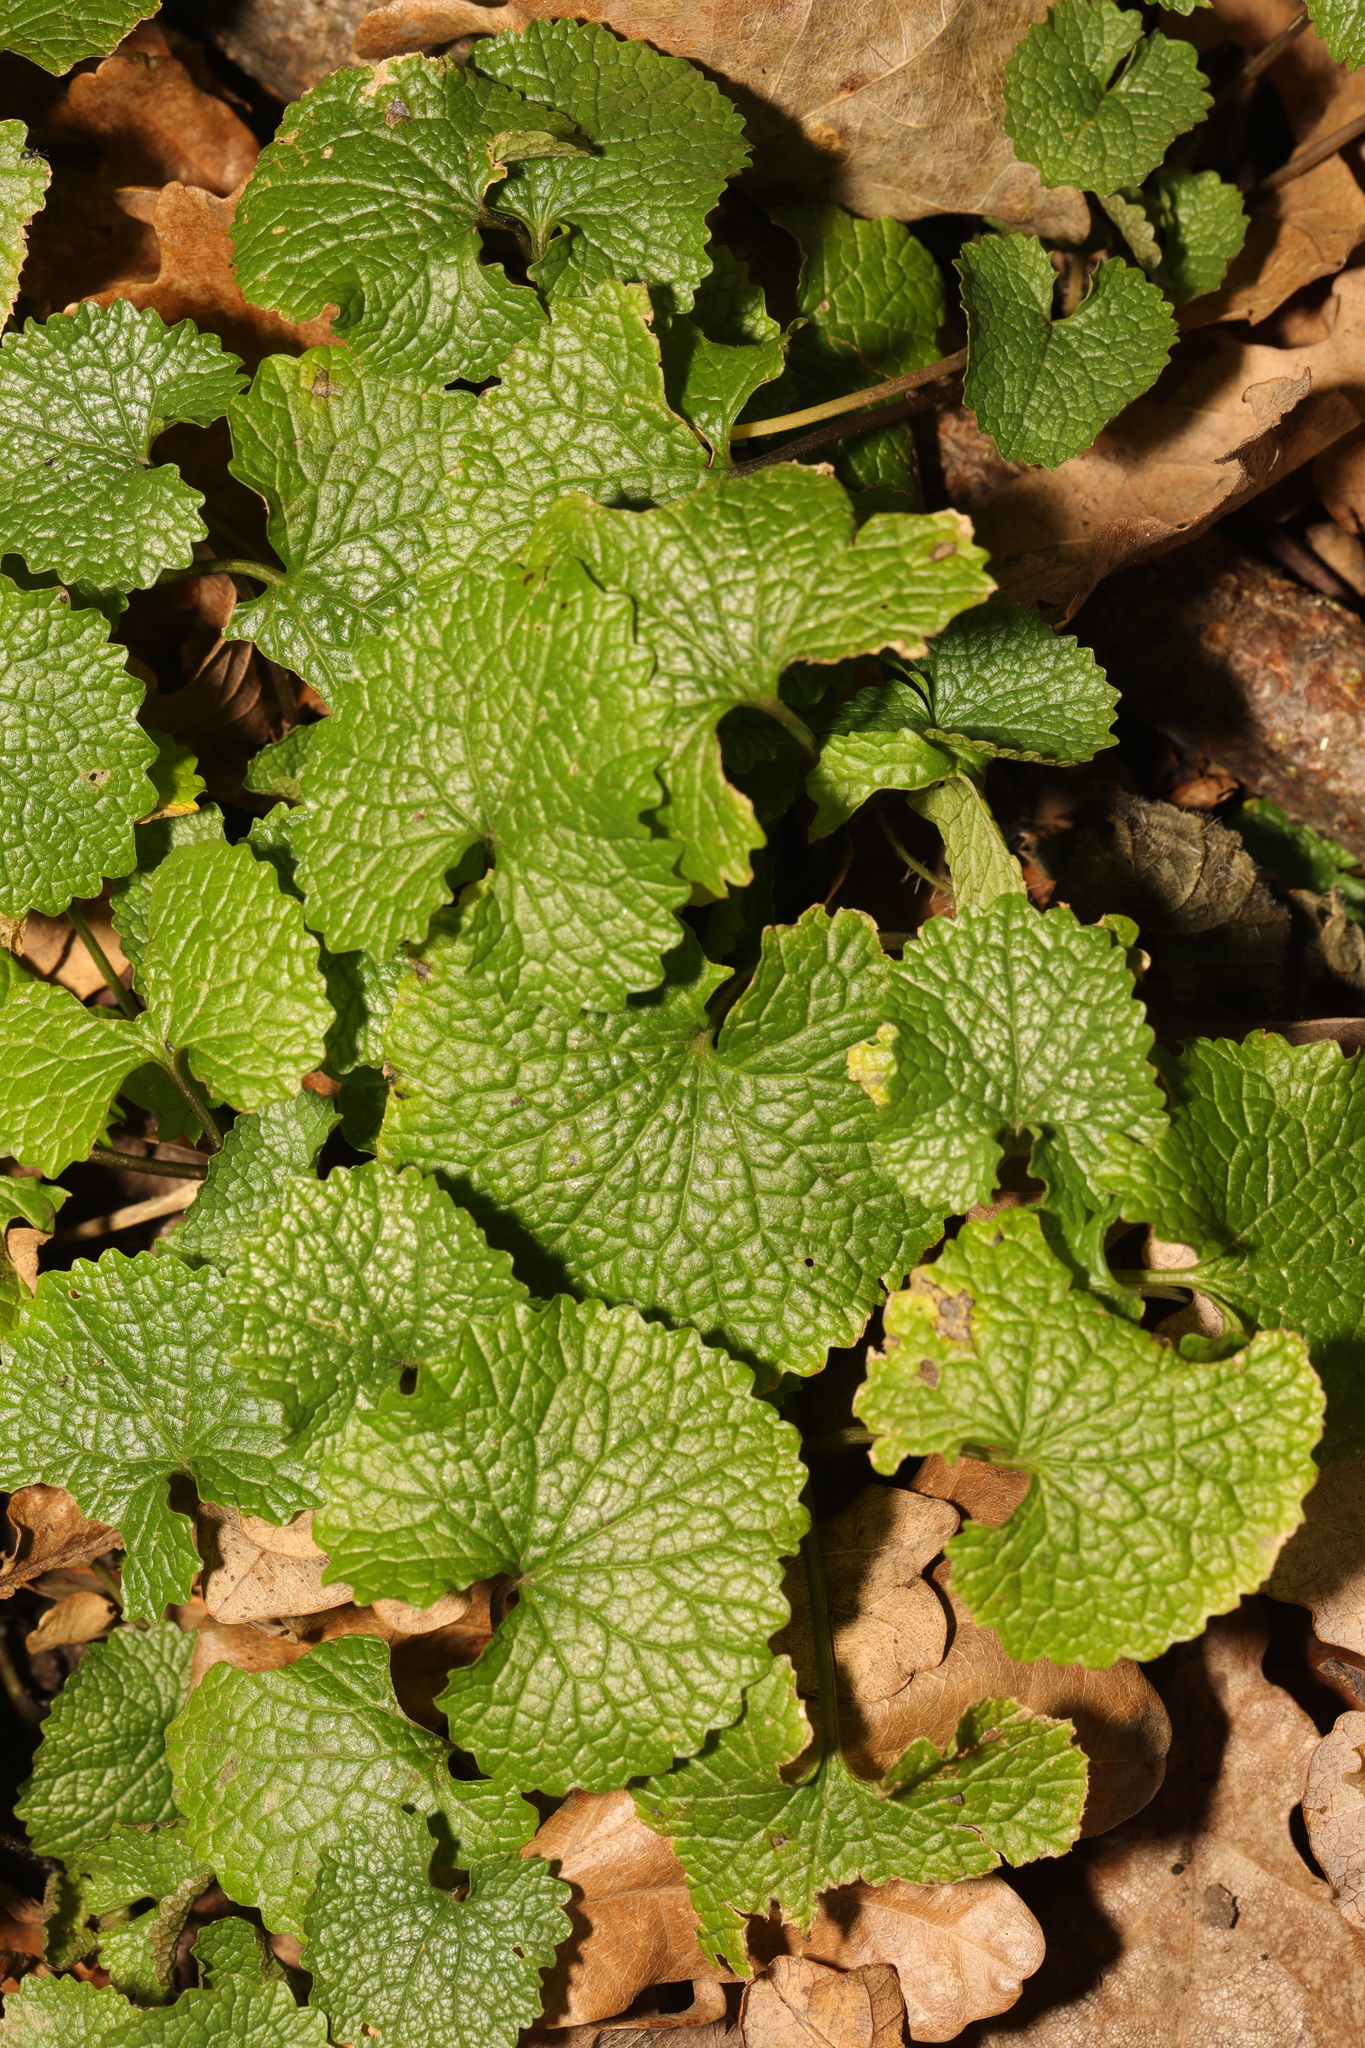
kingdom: Plantae
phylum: Tracheophyta
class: Magnoliopsida
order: Brassicales
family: Brassicaceae
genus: Alliaria
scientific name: Alliaria petiolata
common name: Garlic mustard
